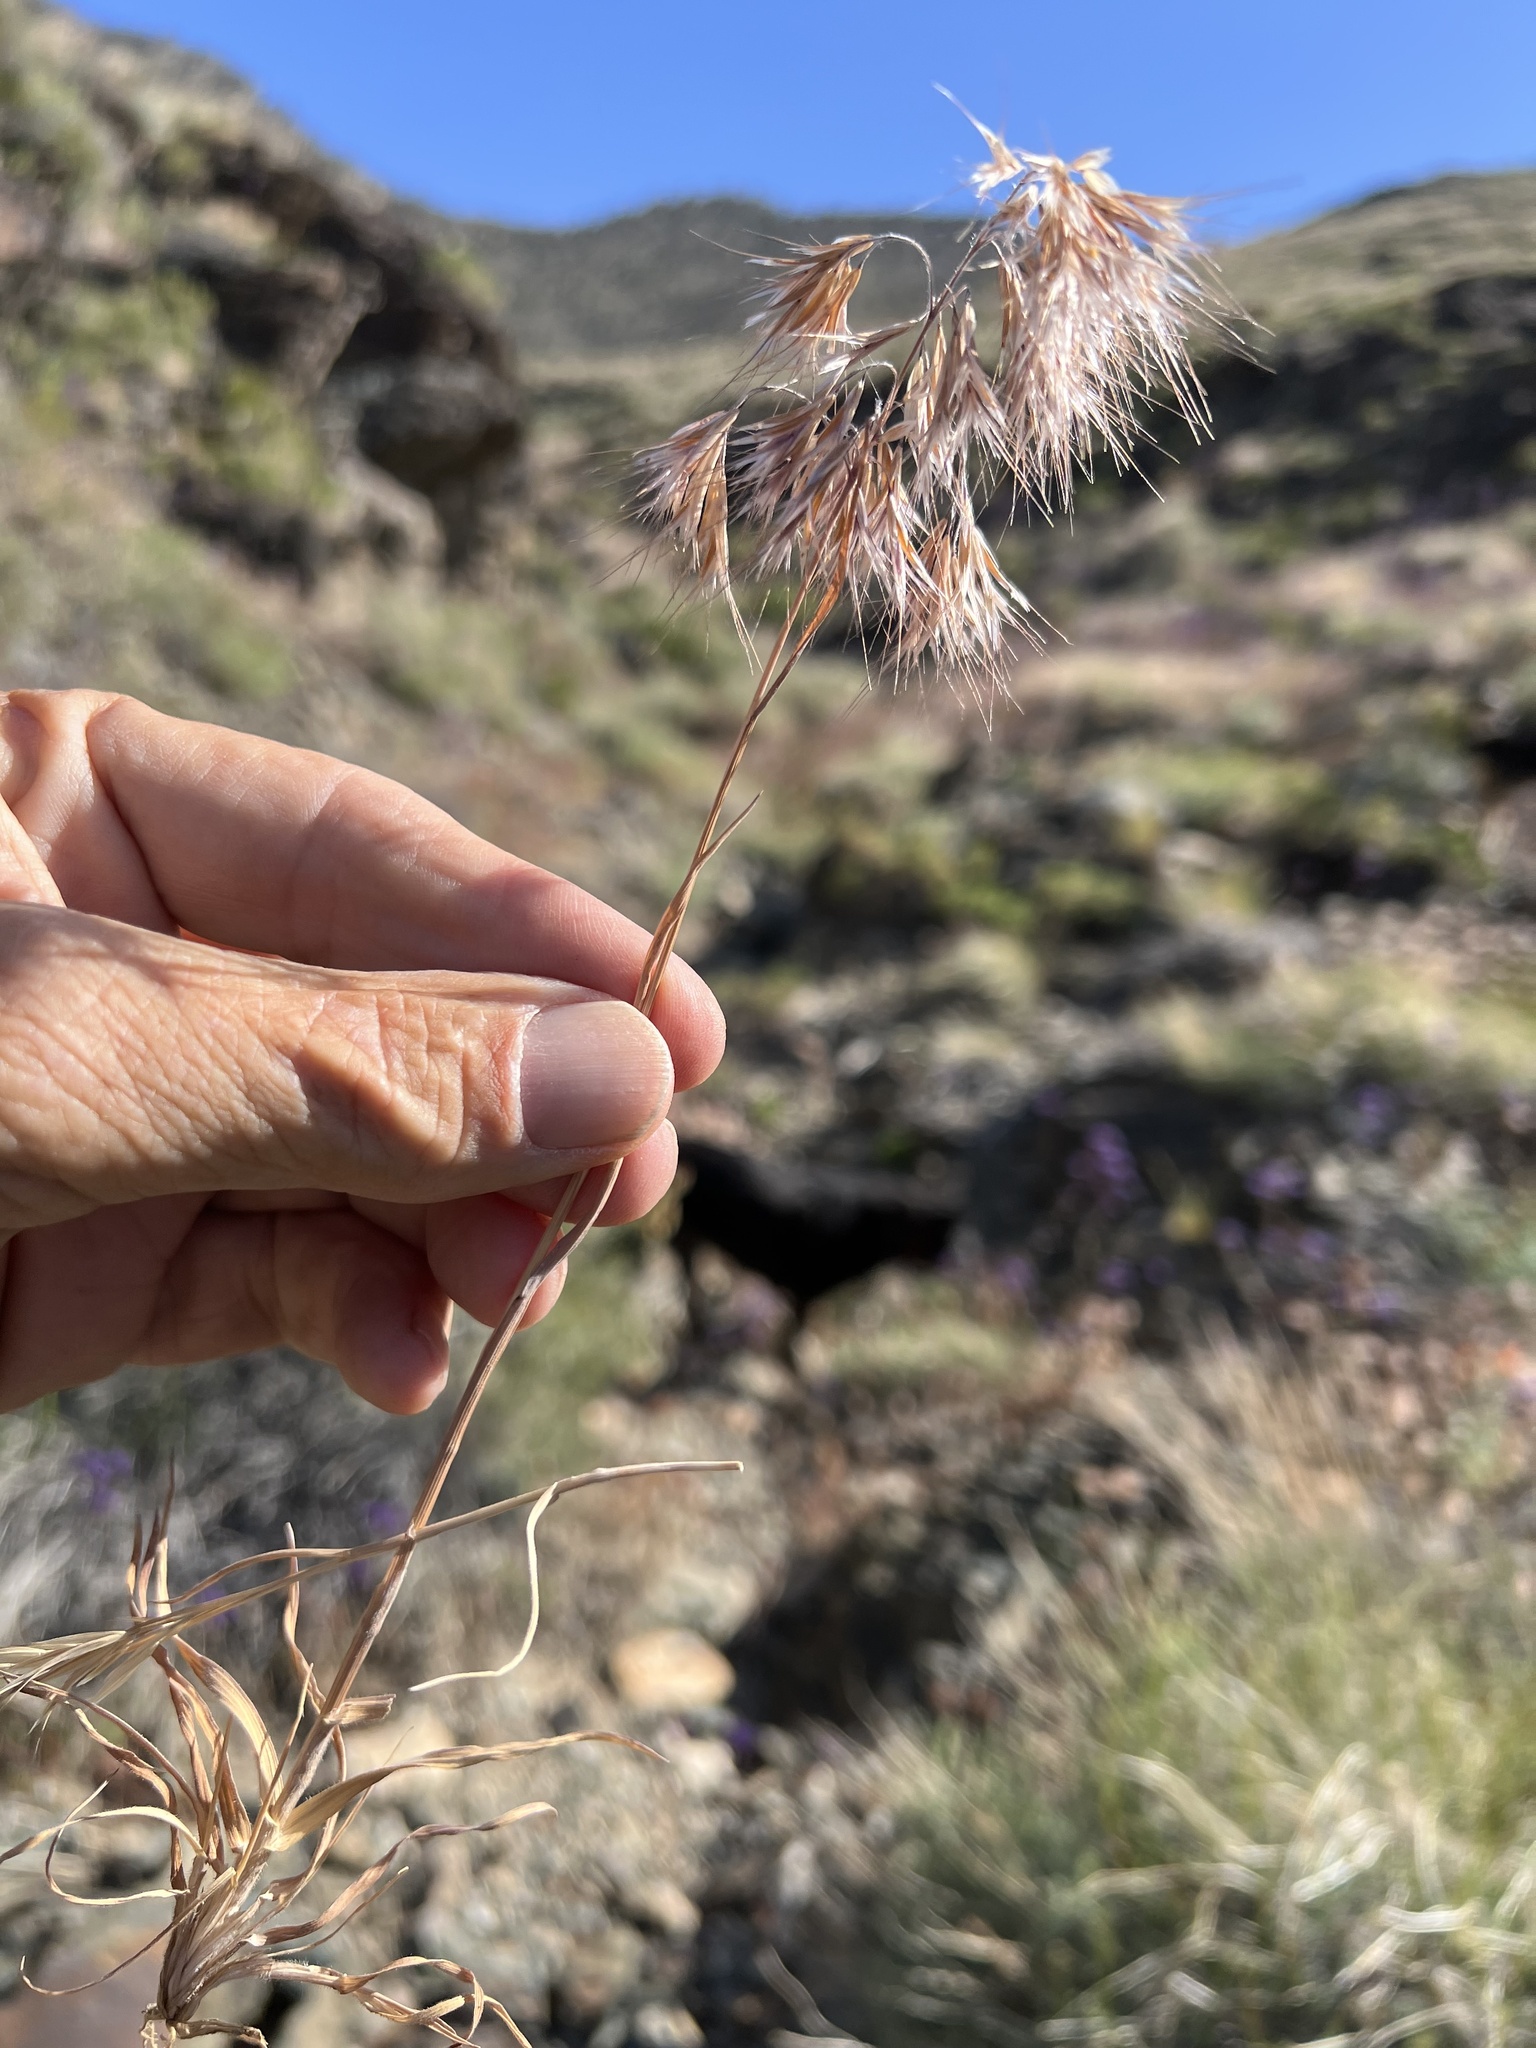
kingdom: Plantae
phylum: Tracheophyta
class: Liliopsida
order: Poales
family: Poaceae
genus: Bromus
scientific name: Bromus tectorum
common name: Cheatgrass
